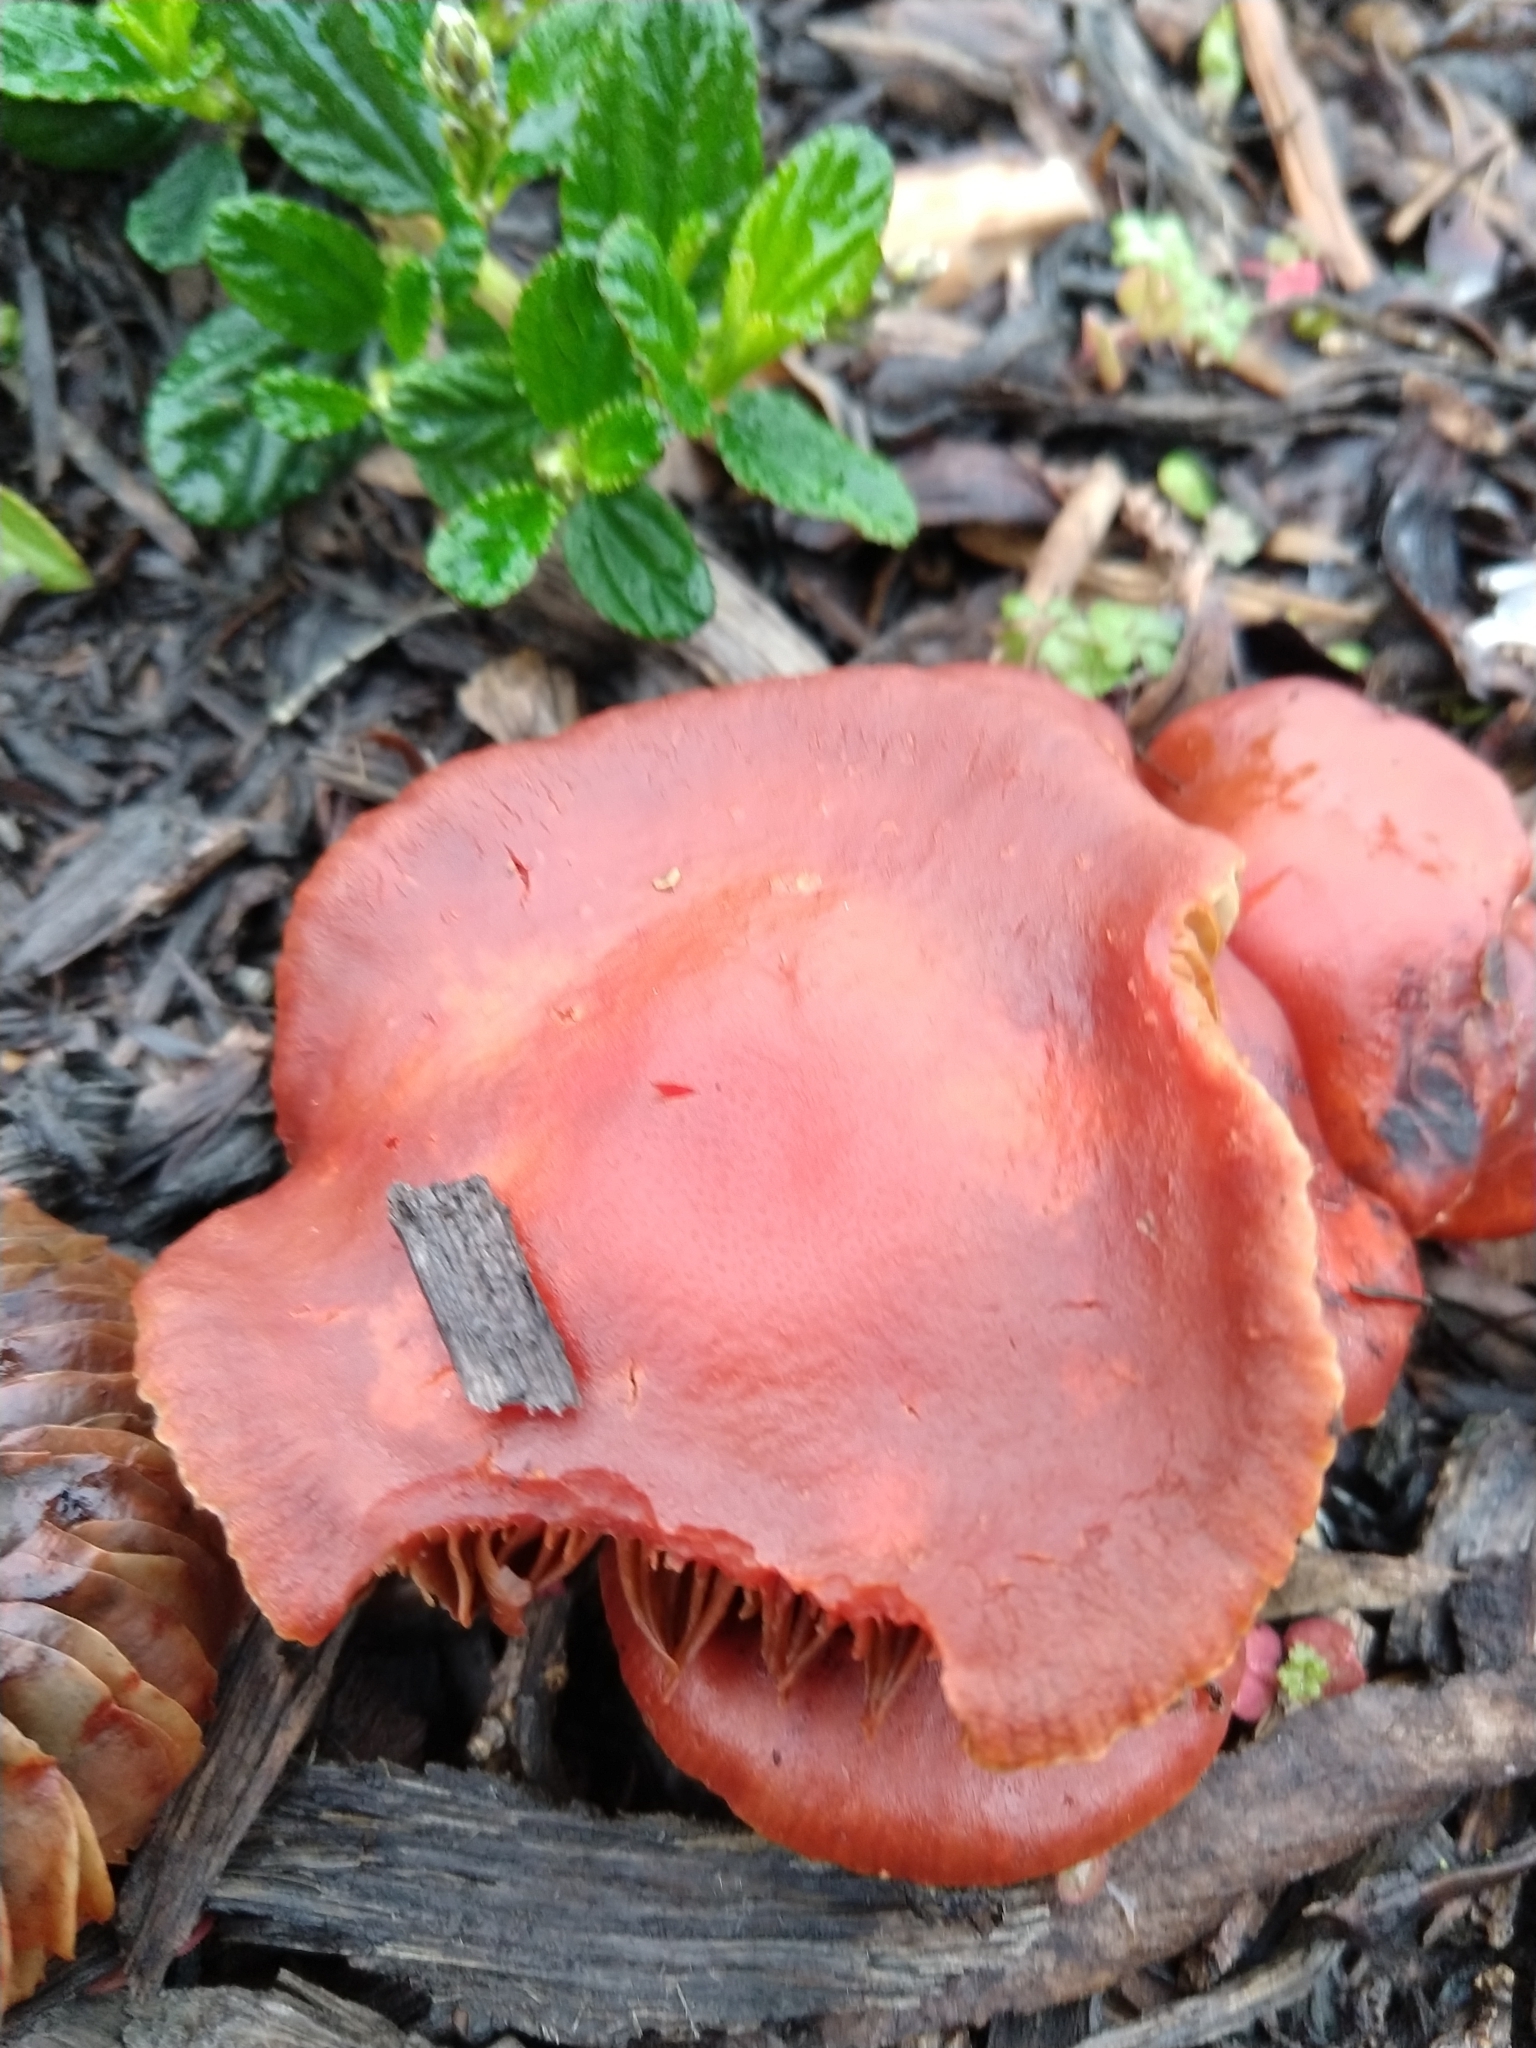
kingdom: Fungi
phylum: Basidiomycota
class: Agaricomycetes
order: Agaricales
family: Strophariaceae
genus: Leratiomyces
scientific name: Leratiomyces ceres
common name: Redlead roundhead
